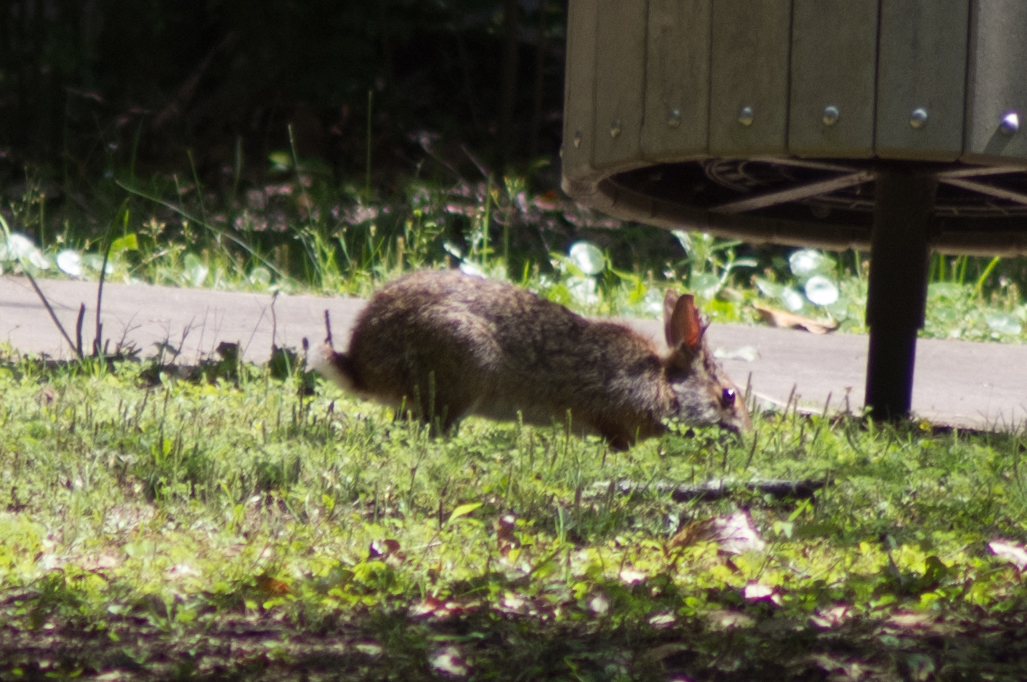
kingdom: Animalia
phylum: Chordata
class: Mammalia
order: Lagomorpha
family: Leporidae
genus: Sylvilagus
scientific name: Sylvilagus aquaticus
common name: Swamp rabbit
